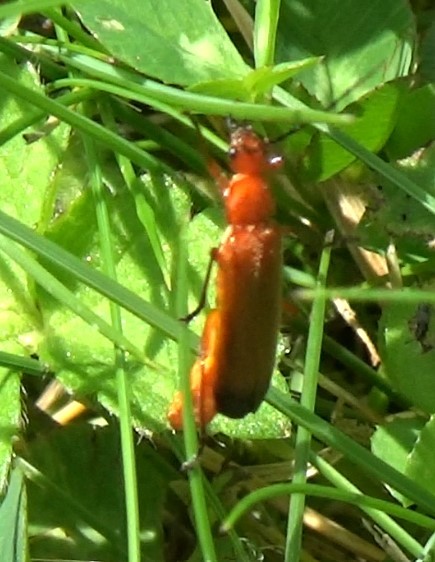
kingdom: Animalia
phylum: Arthropoda
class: Insecta
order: Coleoptera
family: Cantharidae
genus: Rhagonycha
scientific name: Rhagonycha fulva
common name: Common red soldier beetle
